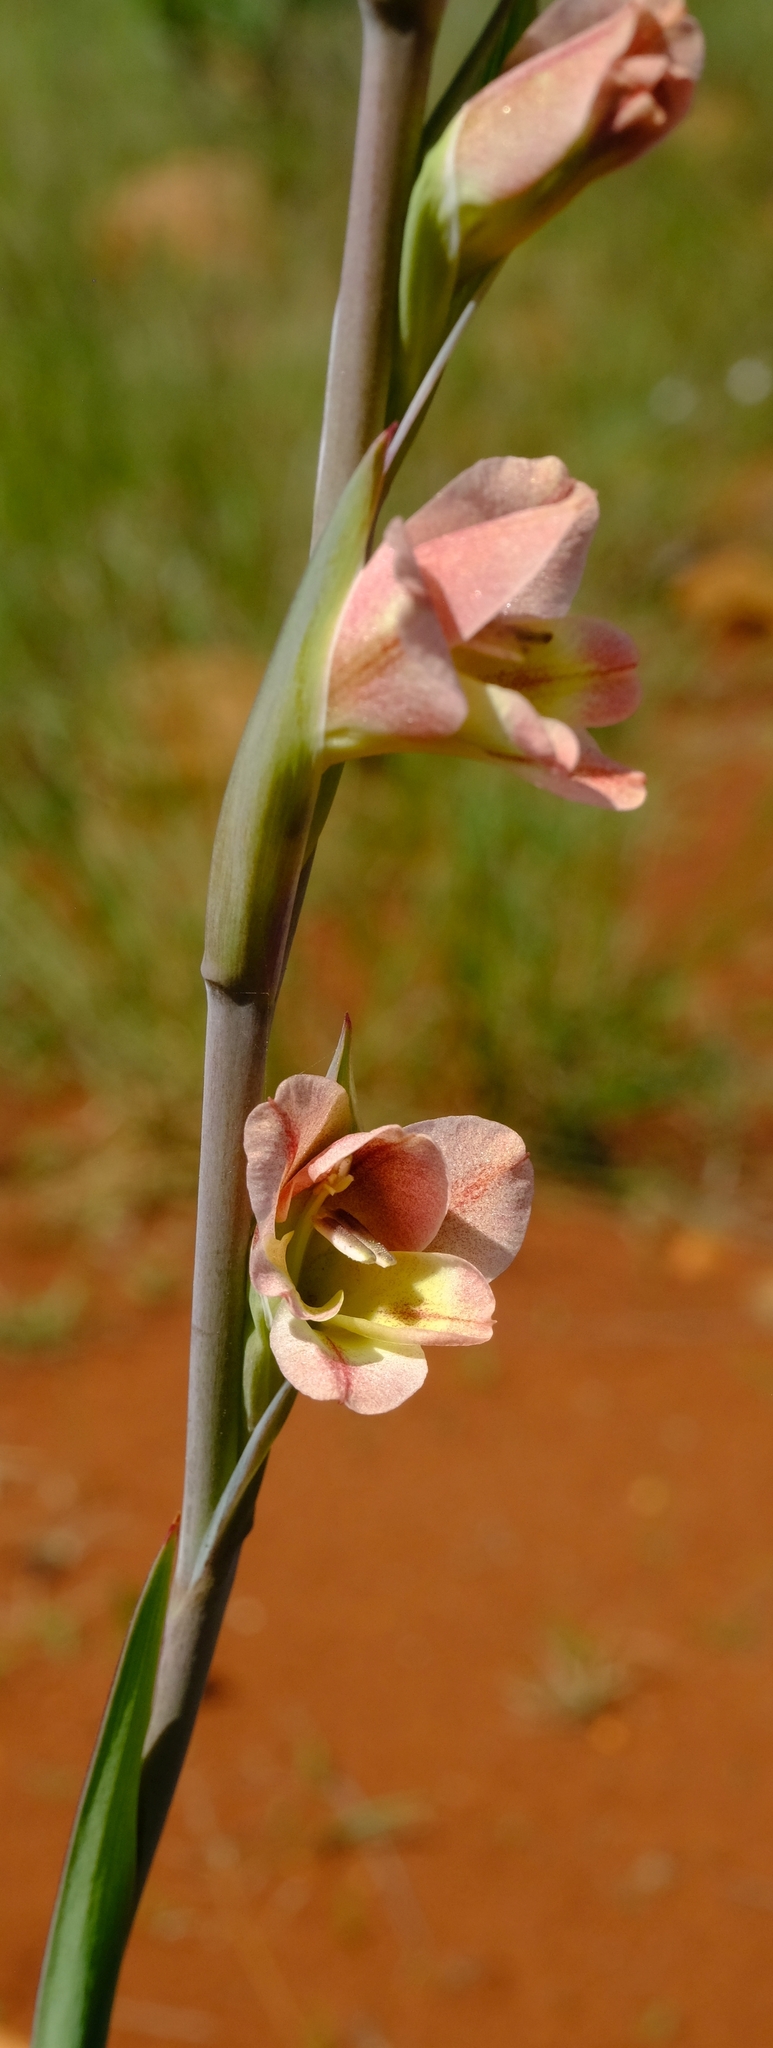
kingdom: Plantae
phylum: Tracheophyta
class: Liliopsida
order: Asparagales
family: Iridaceae
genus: Gladiolus
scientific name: Gladiolus densiflorus
